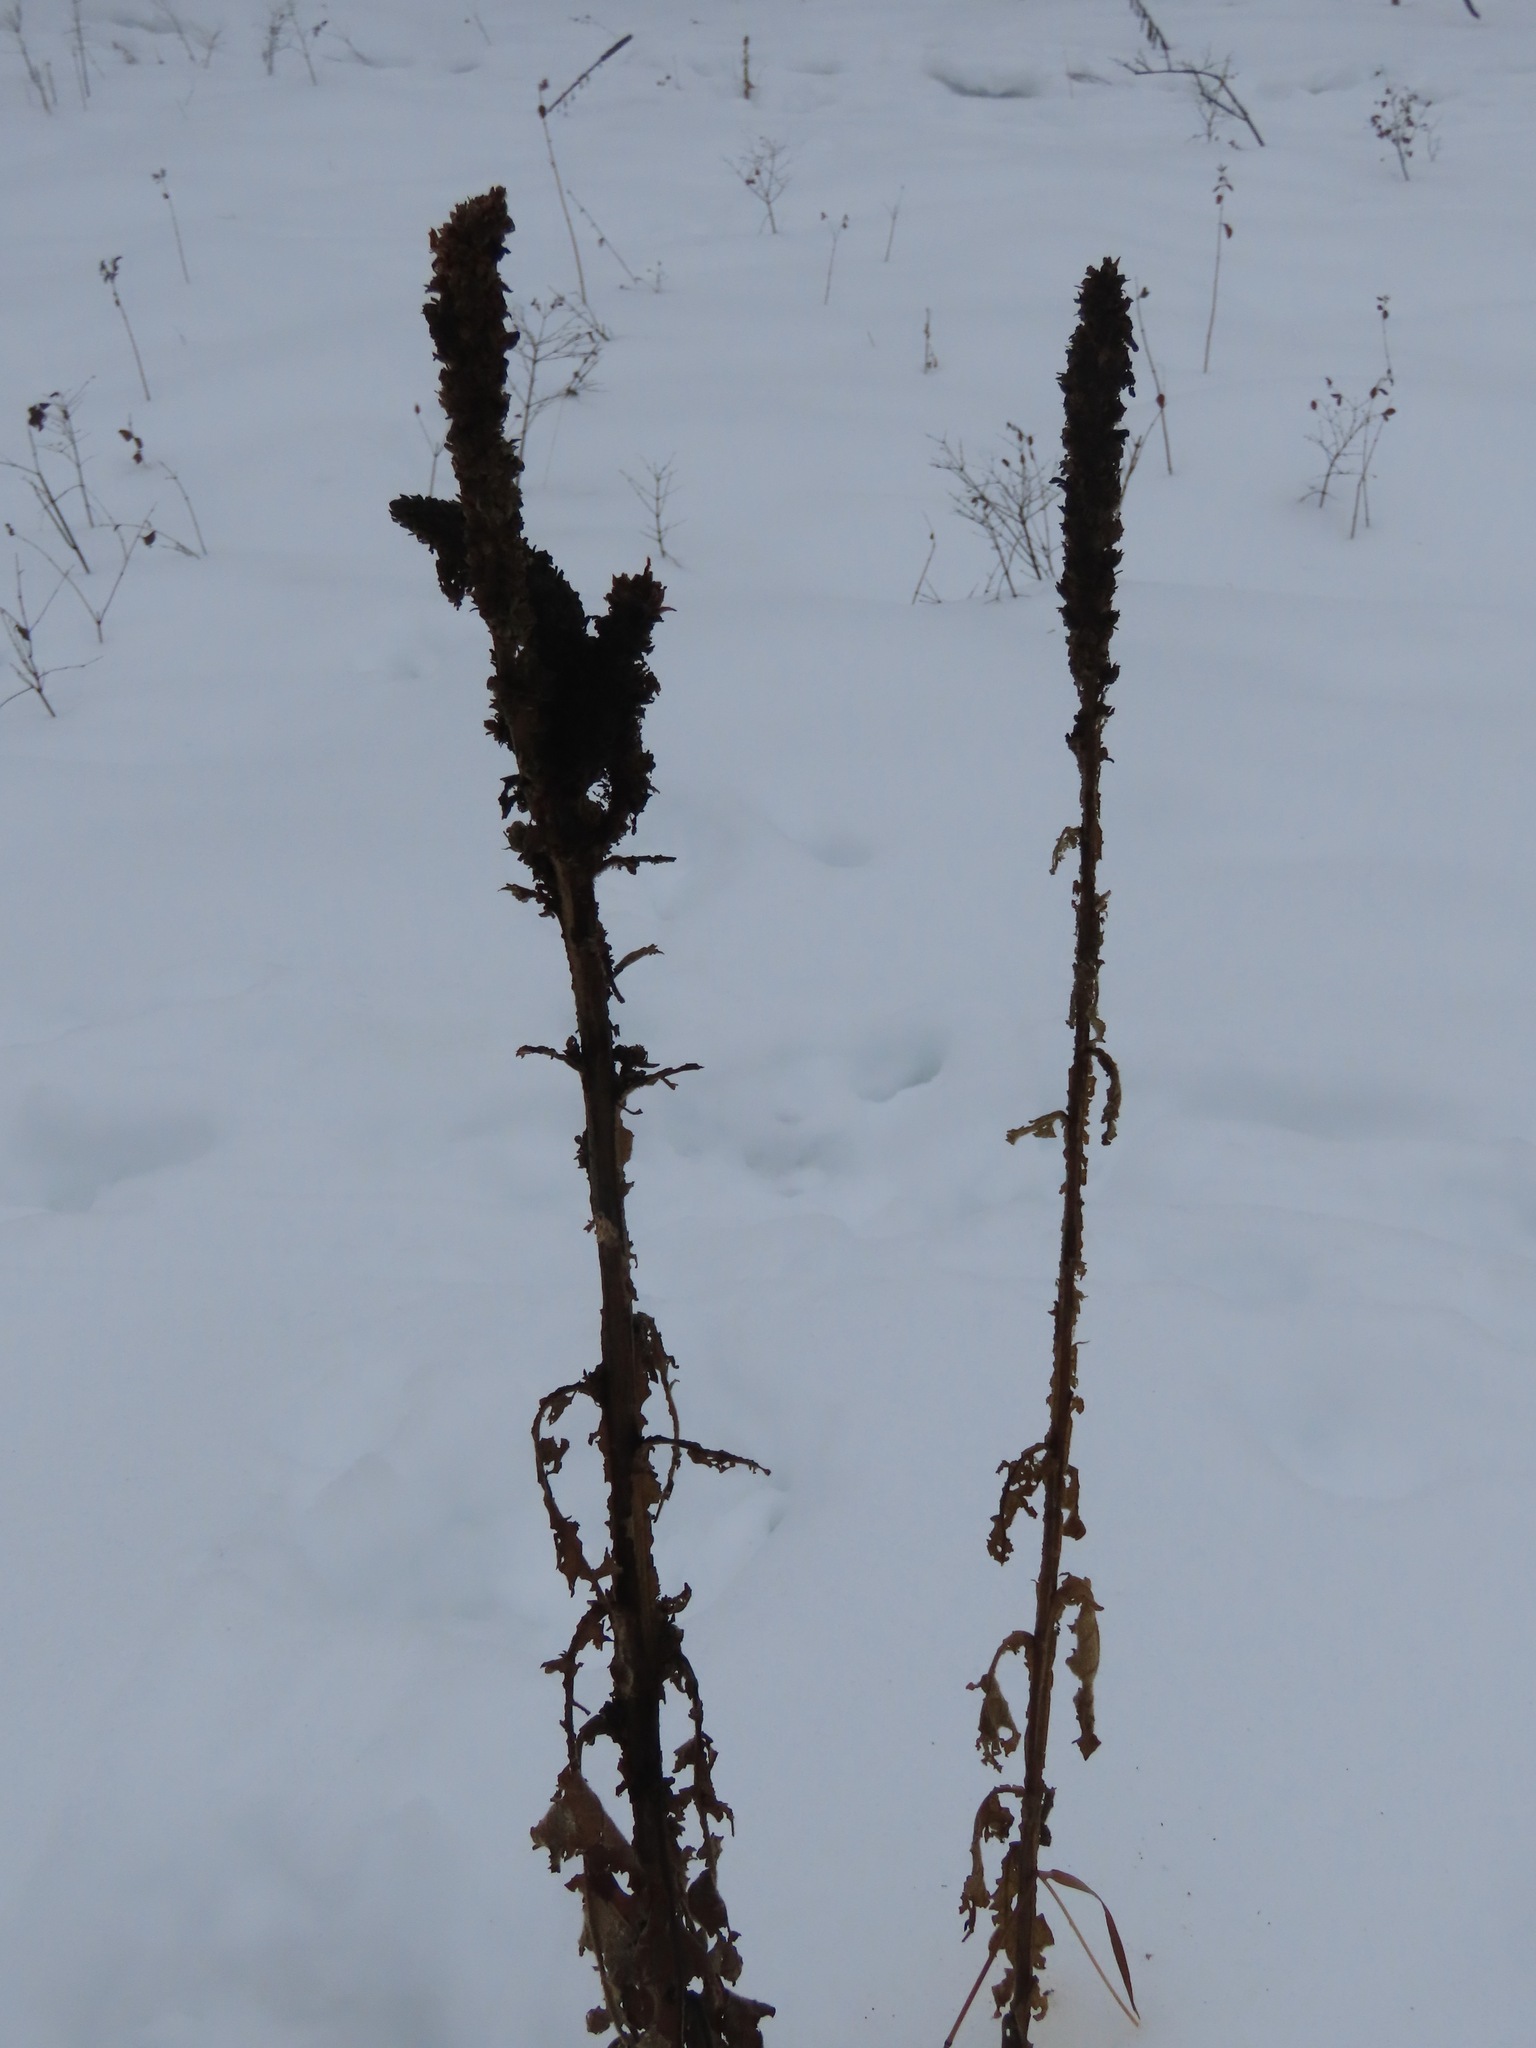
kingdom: Plantae
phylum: Tracheophyta
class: Magnoliopsida
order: Lamiales
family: Scrophulariaceae
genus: Verbascum
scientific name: Verbascum thapsus
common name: Common mullein
